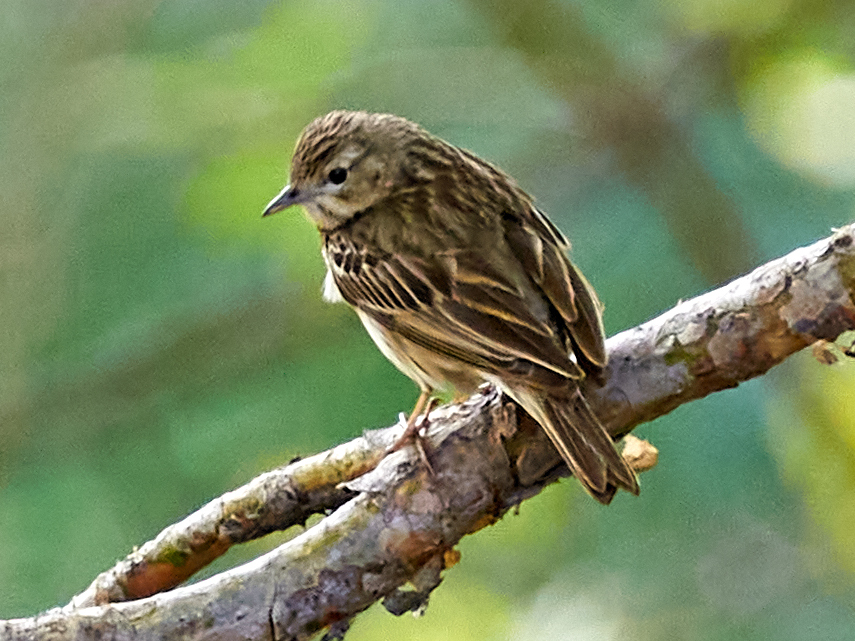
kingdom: Animalia
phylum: Chordata
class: Aves
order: Passeriformes
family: Motacillidae
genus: Anthus
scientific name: Anthus trivialis
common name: Tree pipit
